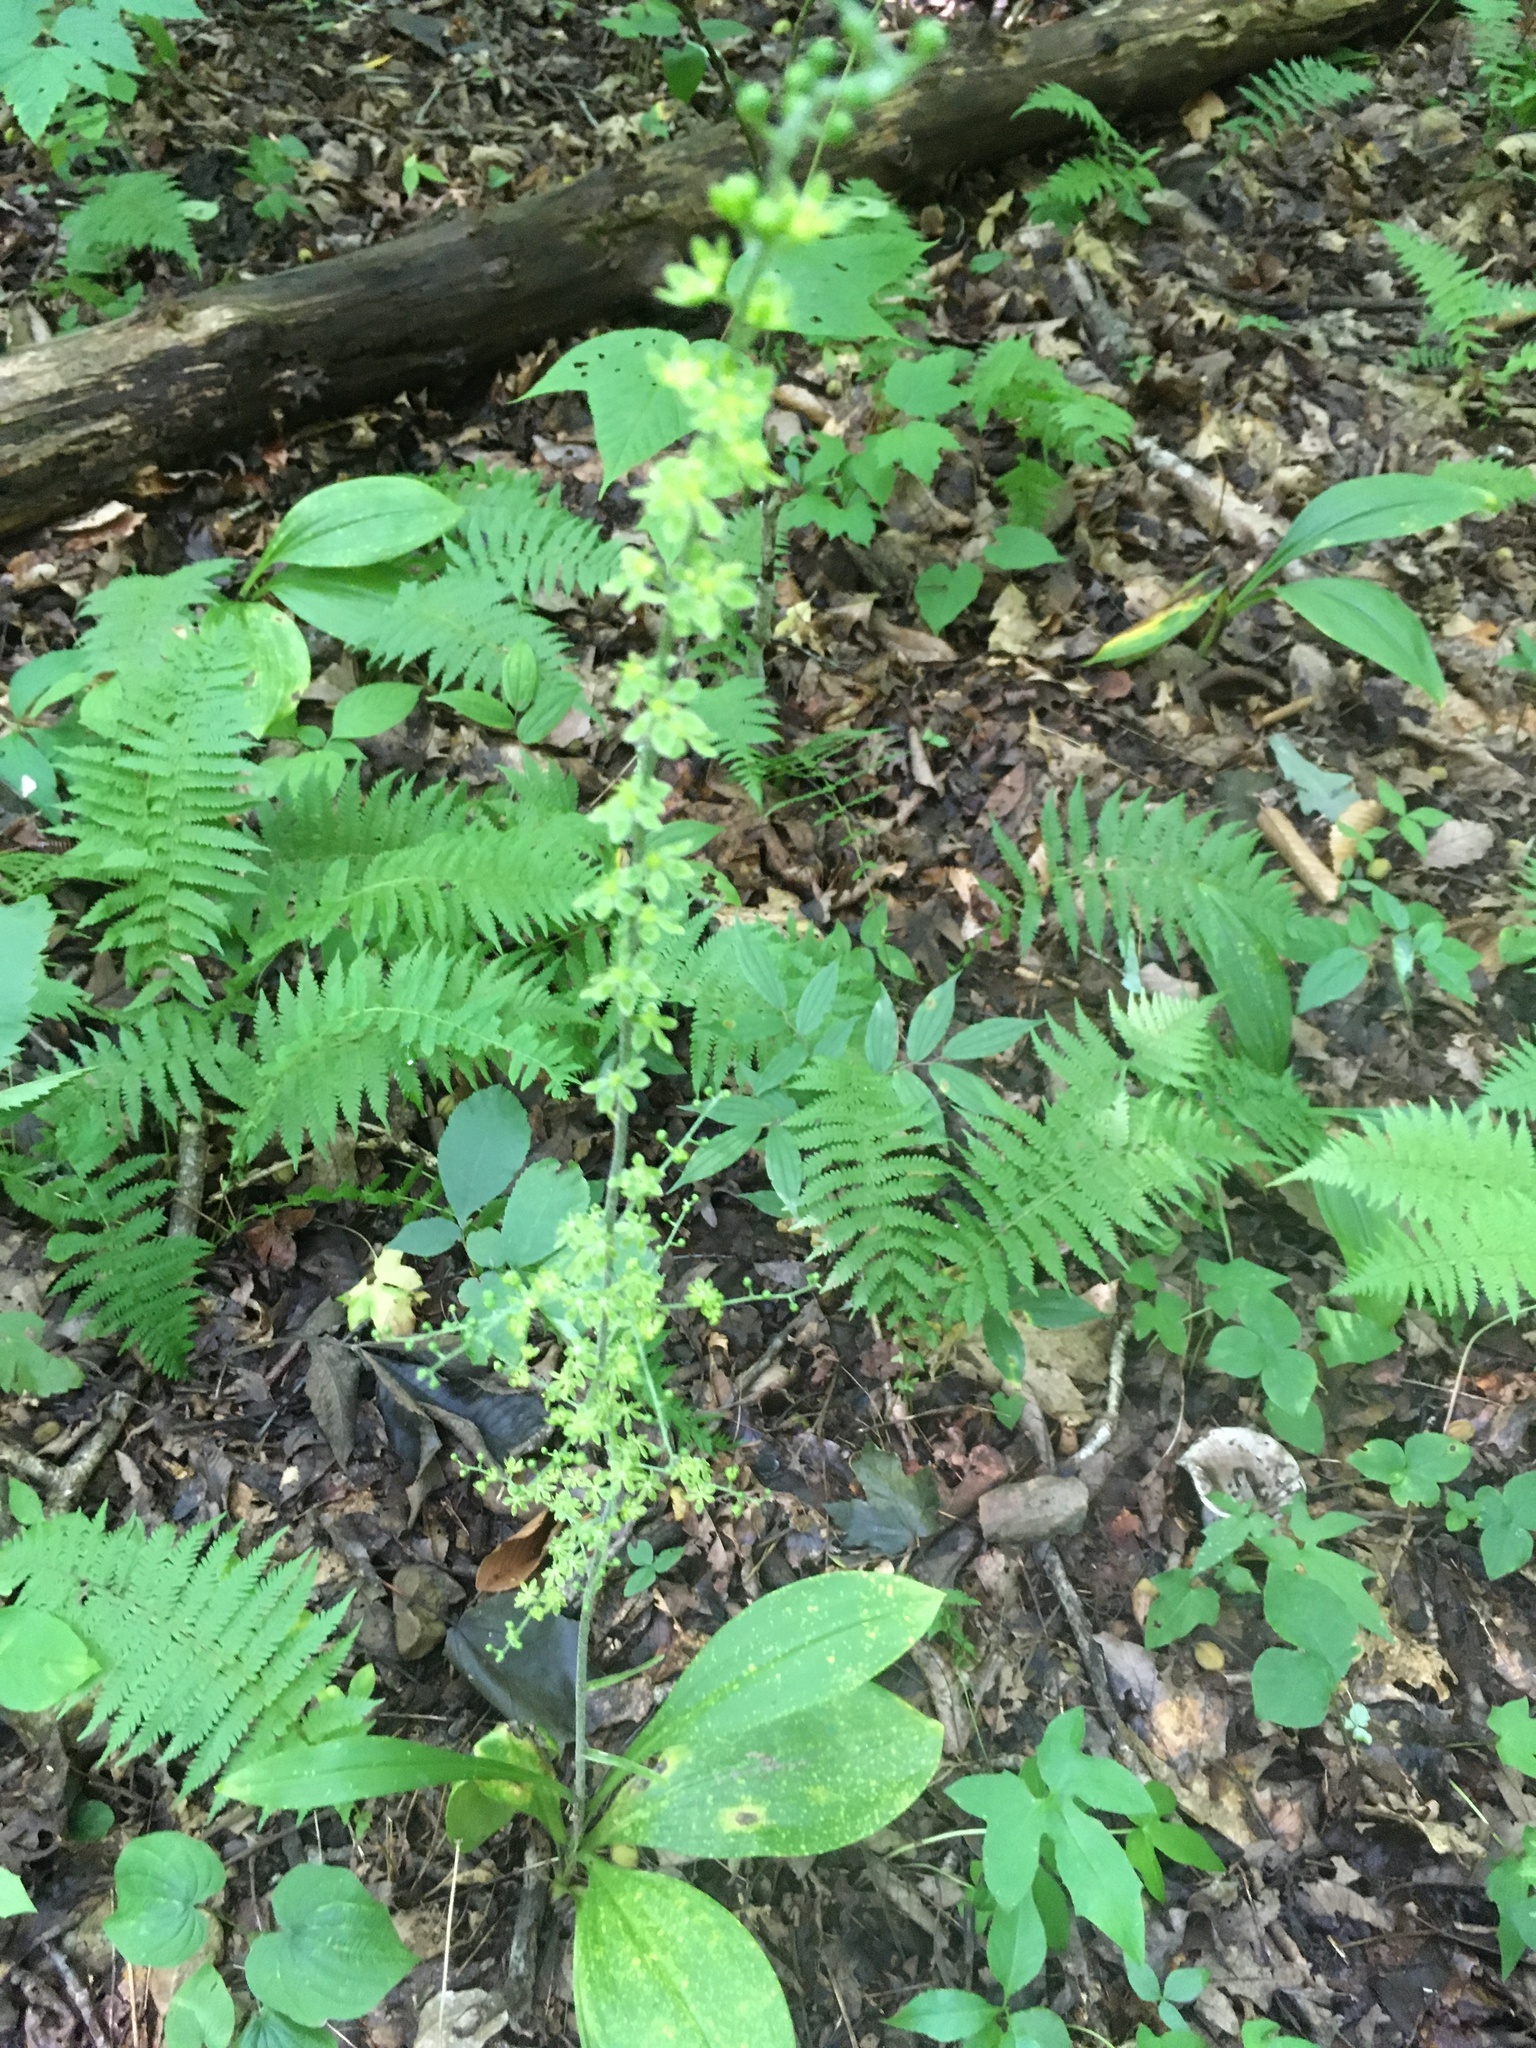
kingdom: Plantae
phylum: Tracheophyta
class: Liliopsida
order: Liliales
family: Melanthiaceae
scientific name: Melanthiaceae
